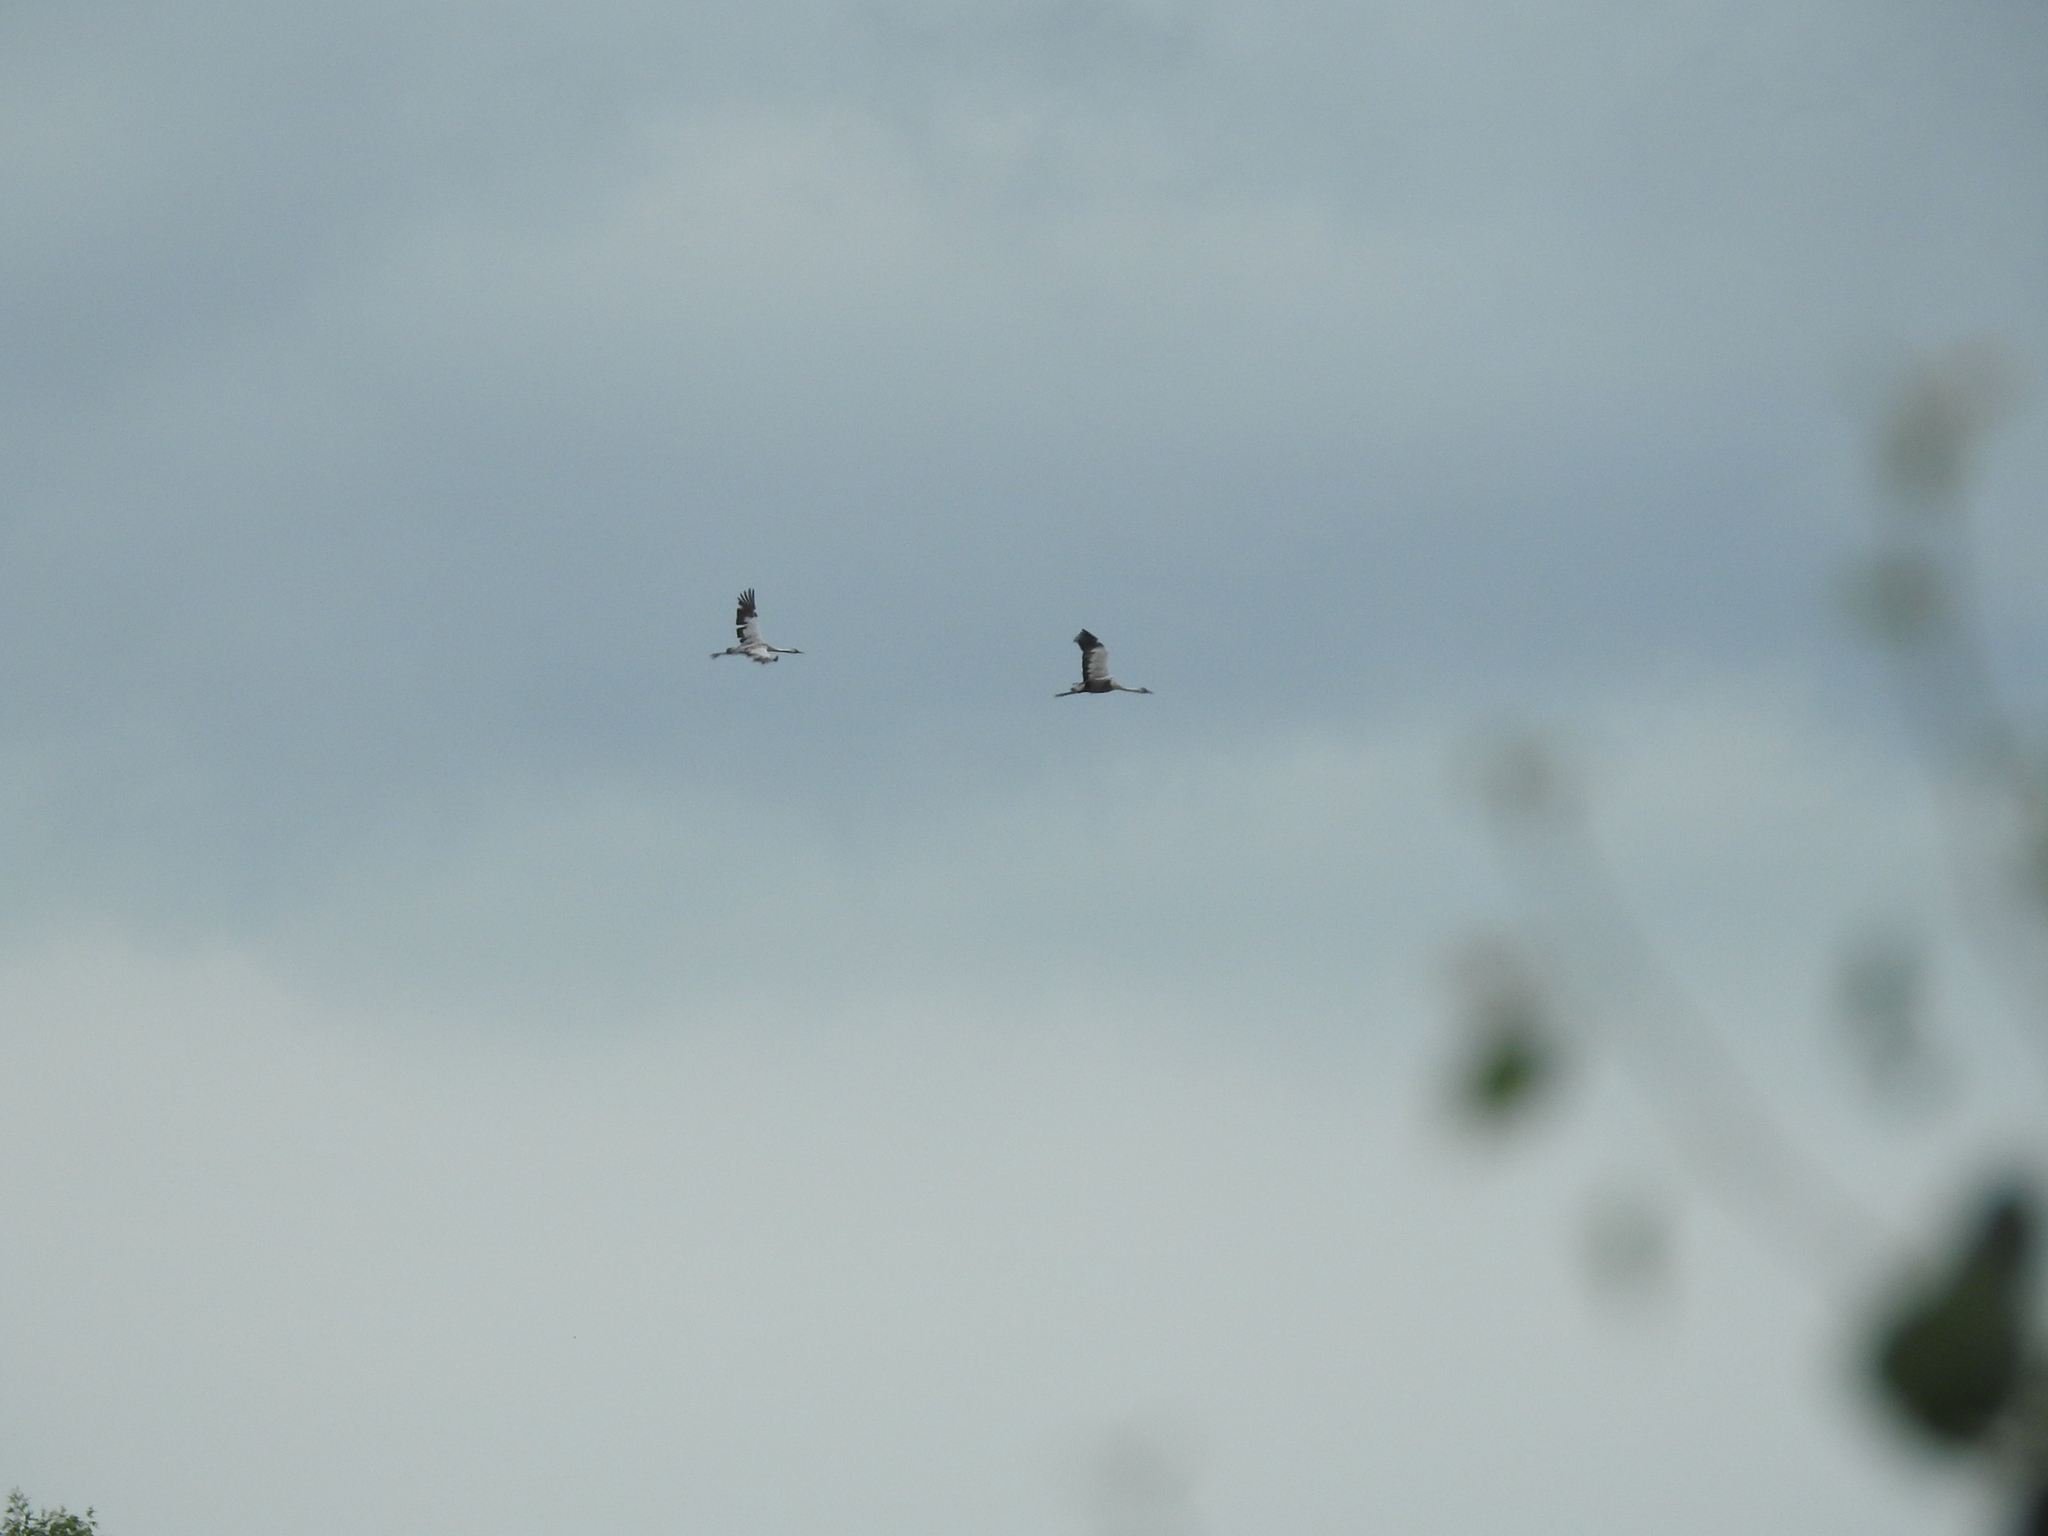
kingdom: Animalia
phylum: Chordata
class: Aves
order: Gruiformes
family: Gruidae
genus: Grus
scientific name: Grus grus
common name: Common crane
